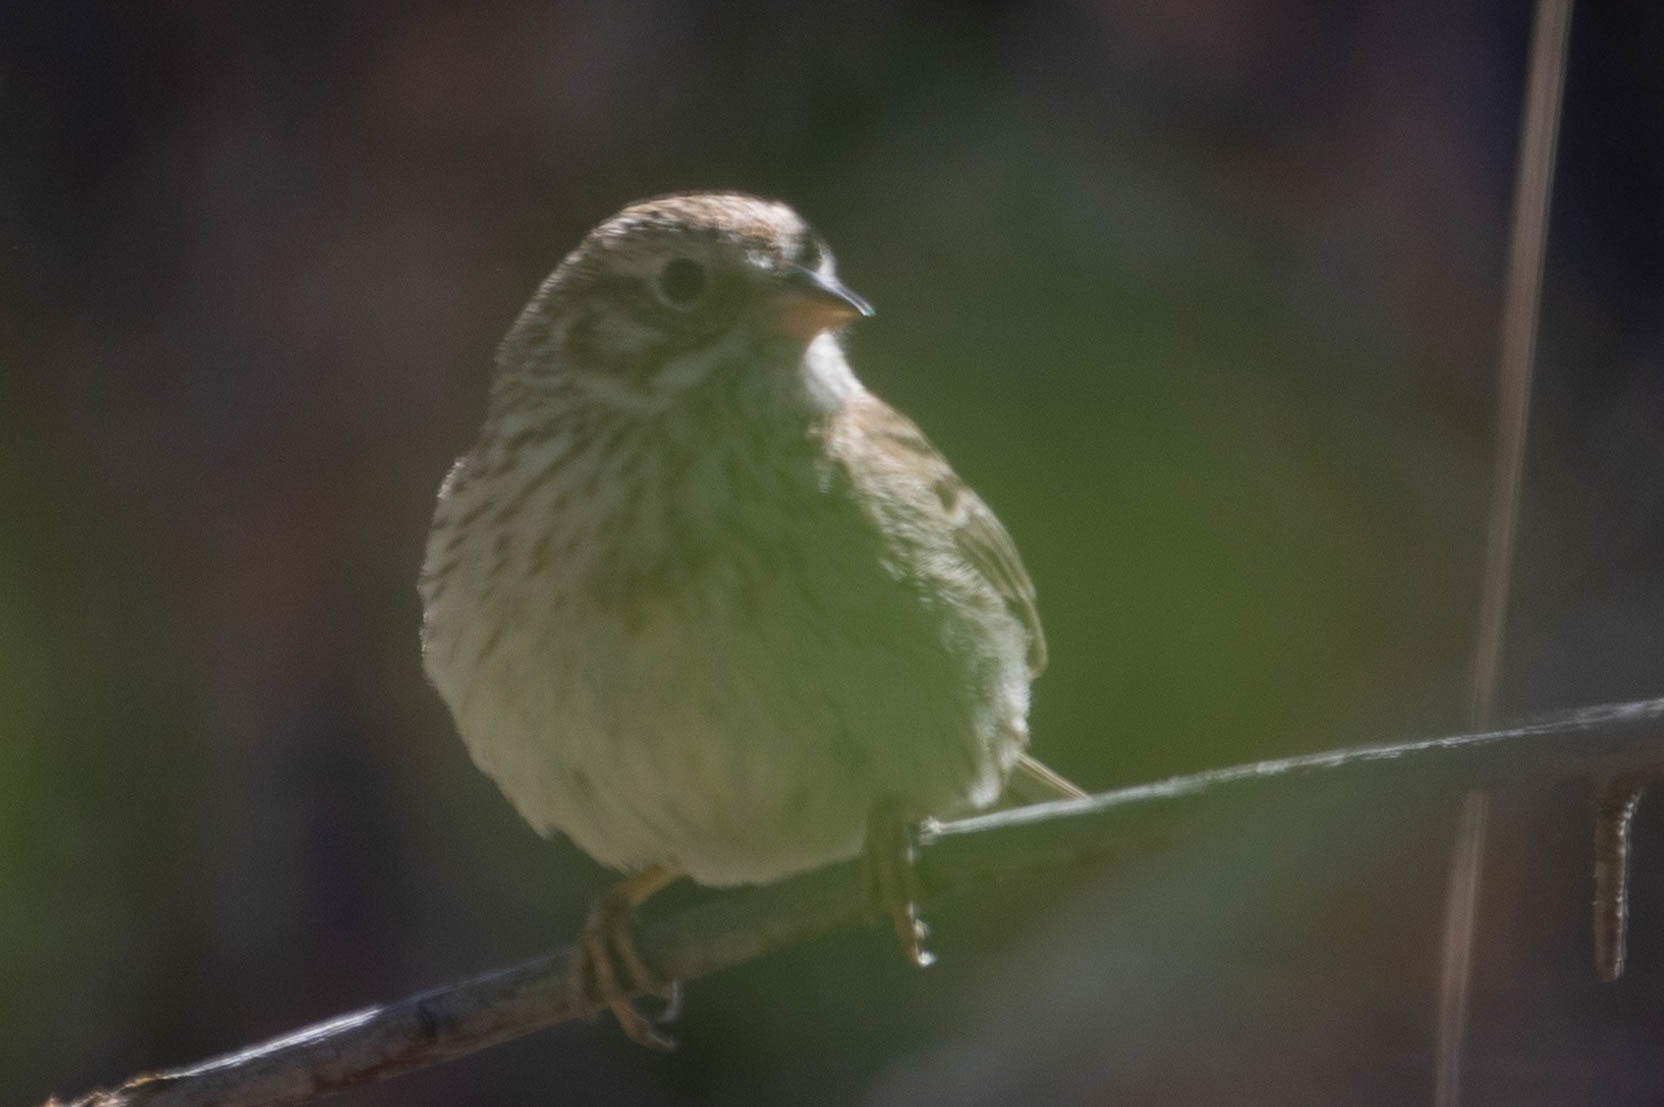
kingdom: Animalia
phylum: Chordata
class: Aves
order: Passeriformes
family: Passerellidae
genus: Pooecetes
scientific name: Pooecetes gramineus
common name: Vesper sparrow
